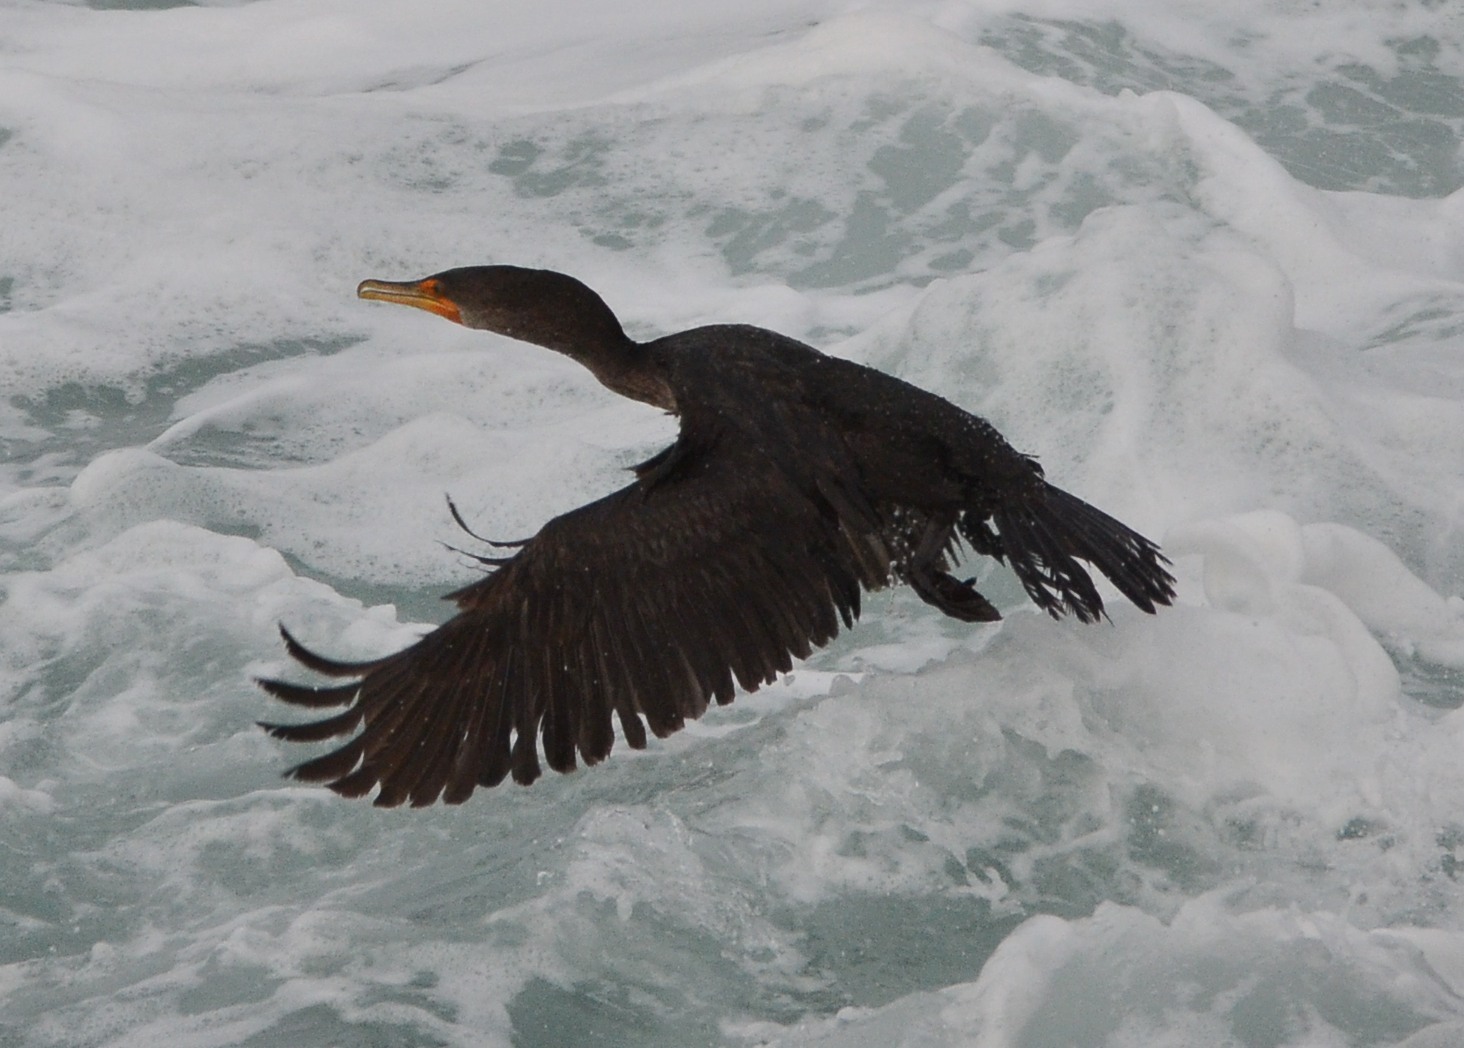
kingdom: Animalia
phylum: Chordata
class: Aves
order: Suliformes
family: Phalacrocoracidae
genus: Phalacrocorax
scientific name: Phalacrocorax auritus
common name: Double-crested cormorant
